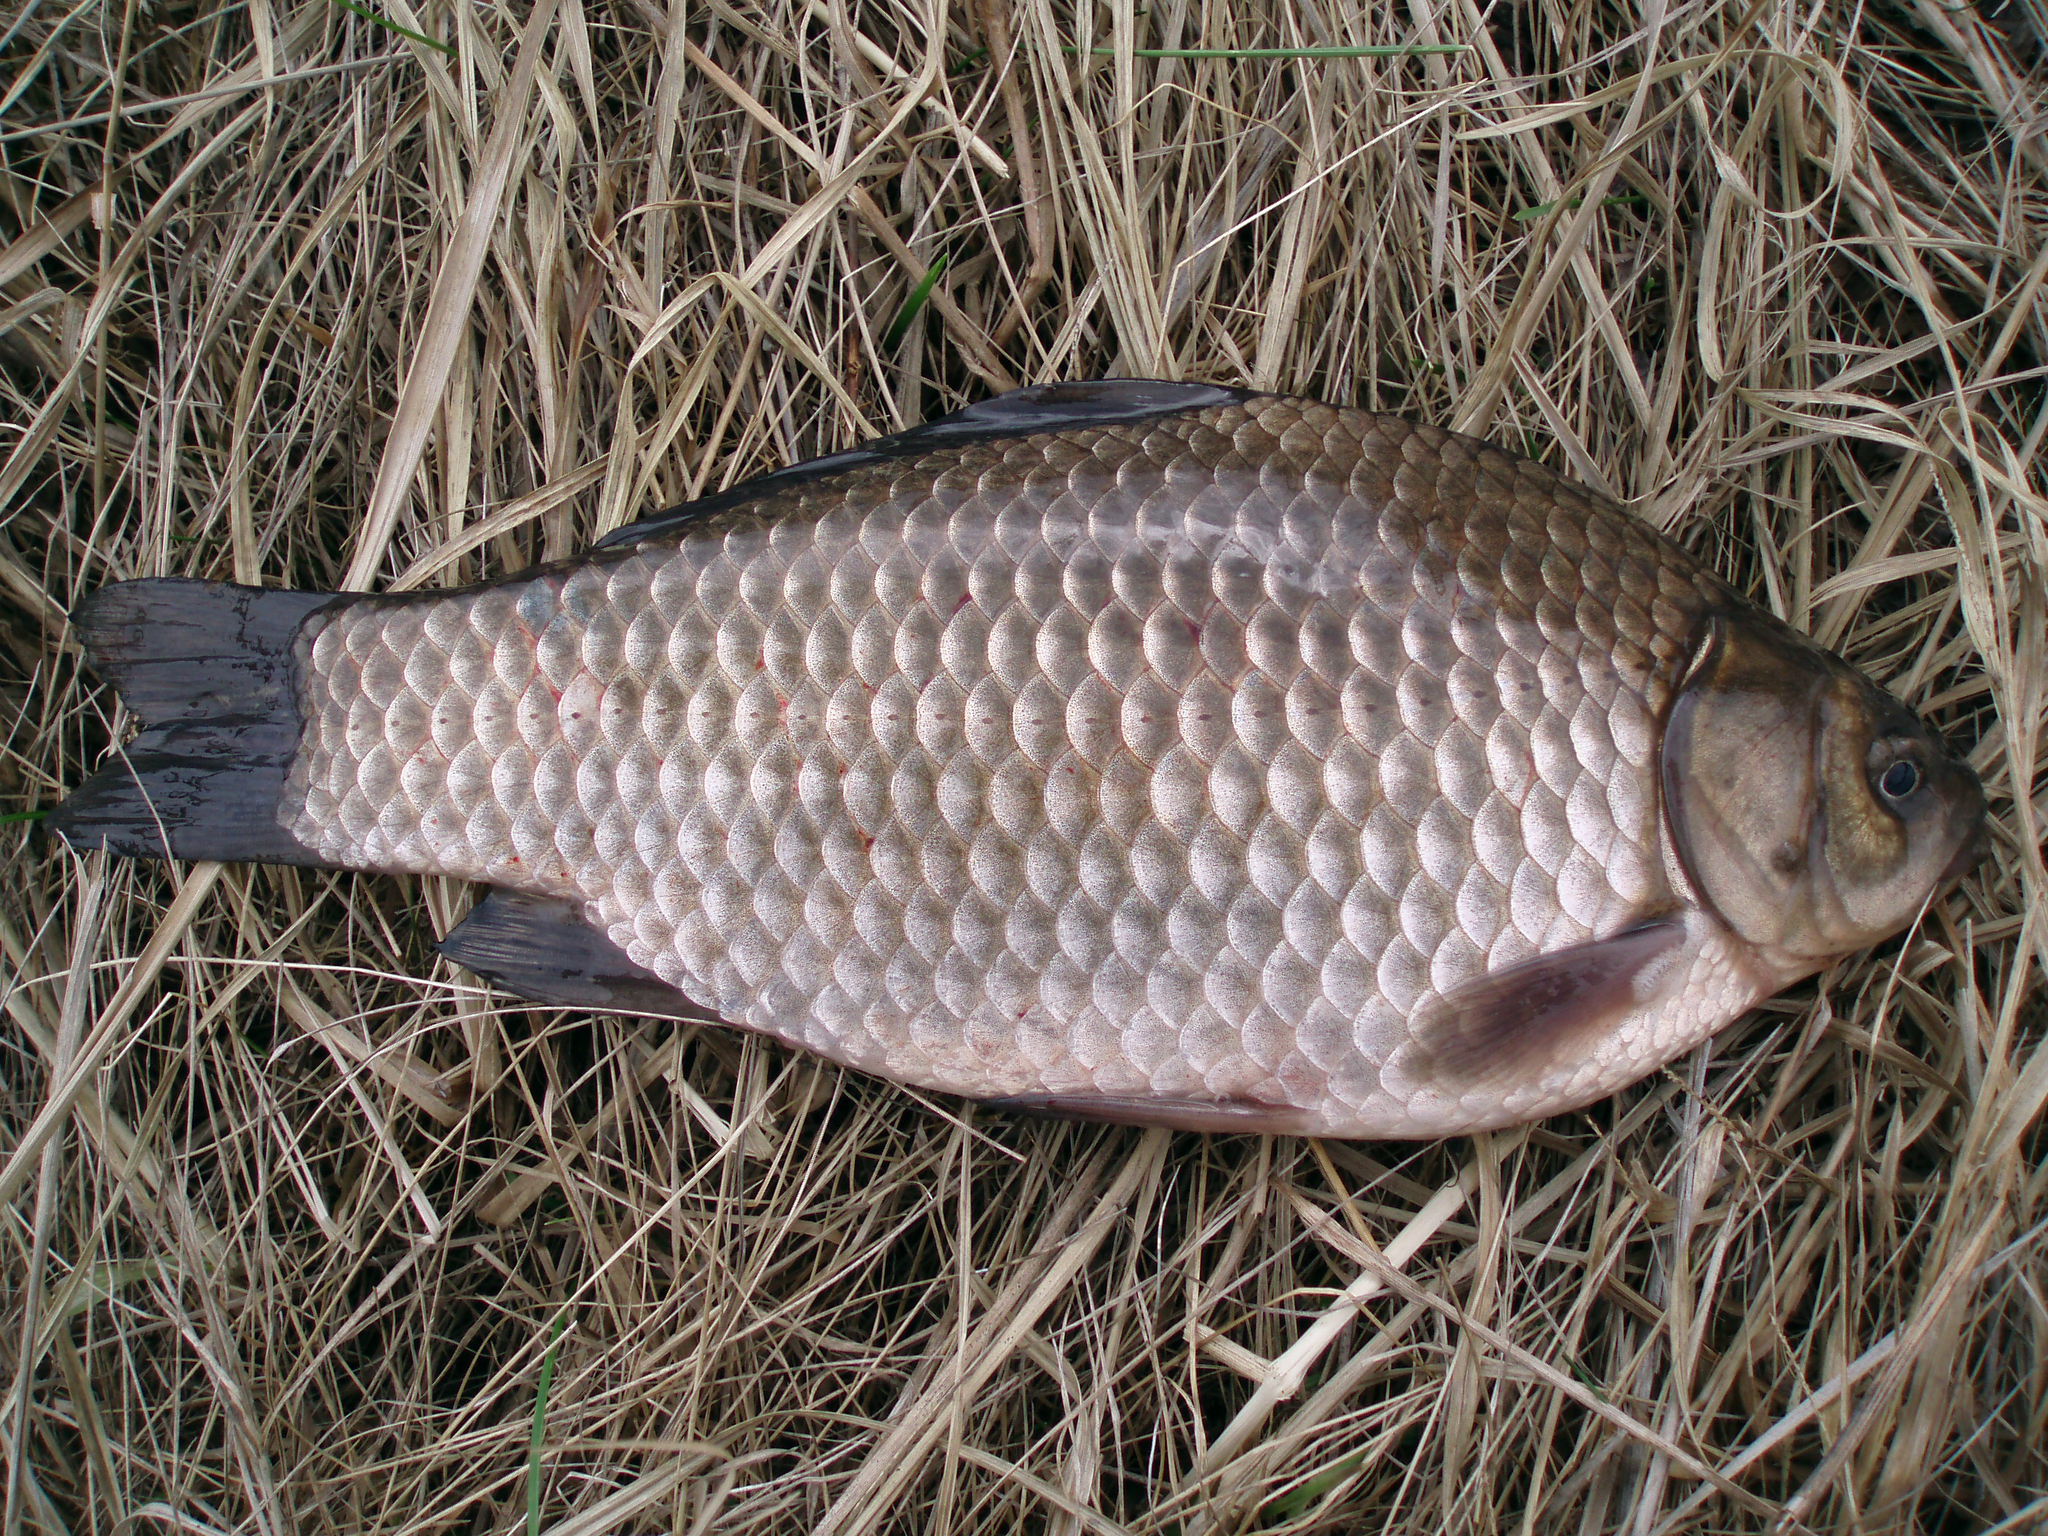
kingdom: Animalia
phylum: Chordata
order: Cypriniformes
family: Cyprinidae
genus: Carassius
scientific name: Carassius gibelio
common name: Prussian carp
